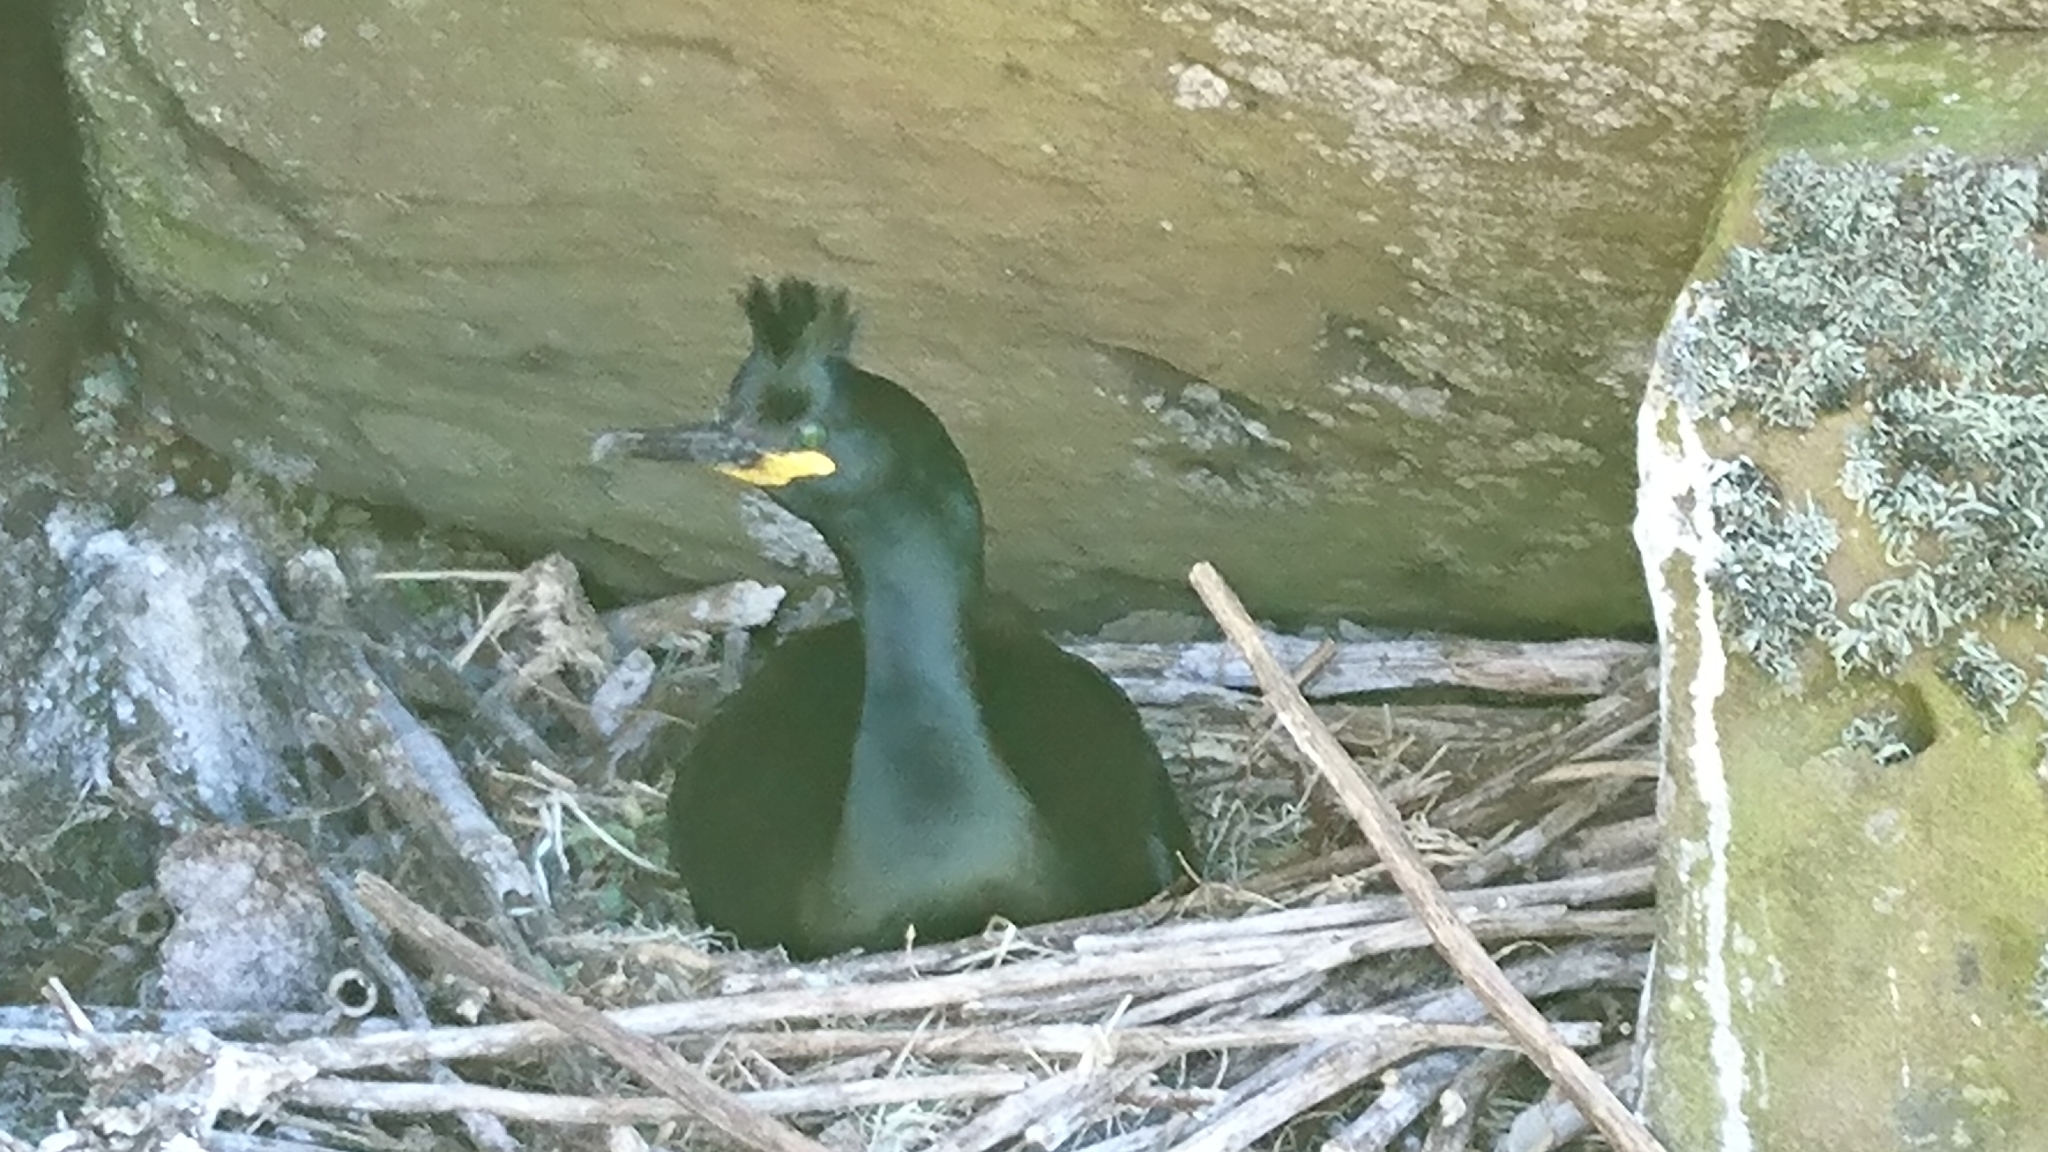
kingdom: Animalia
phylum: Chordata
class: Aves
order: Suliformes
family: Phalacrocoracidae
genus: Phalacrocorax
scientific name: Phalacrocorax aristotelis
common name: European shag
